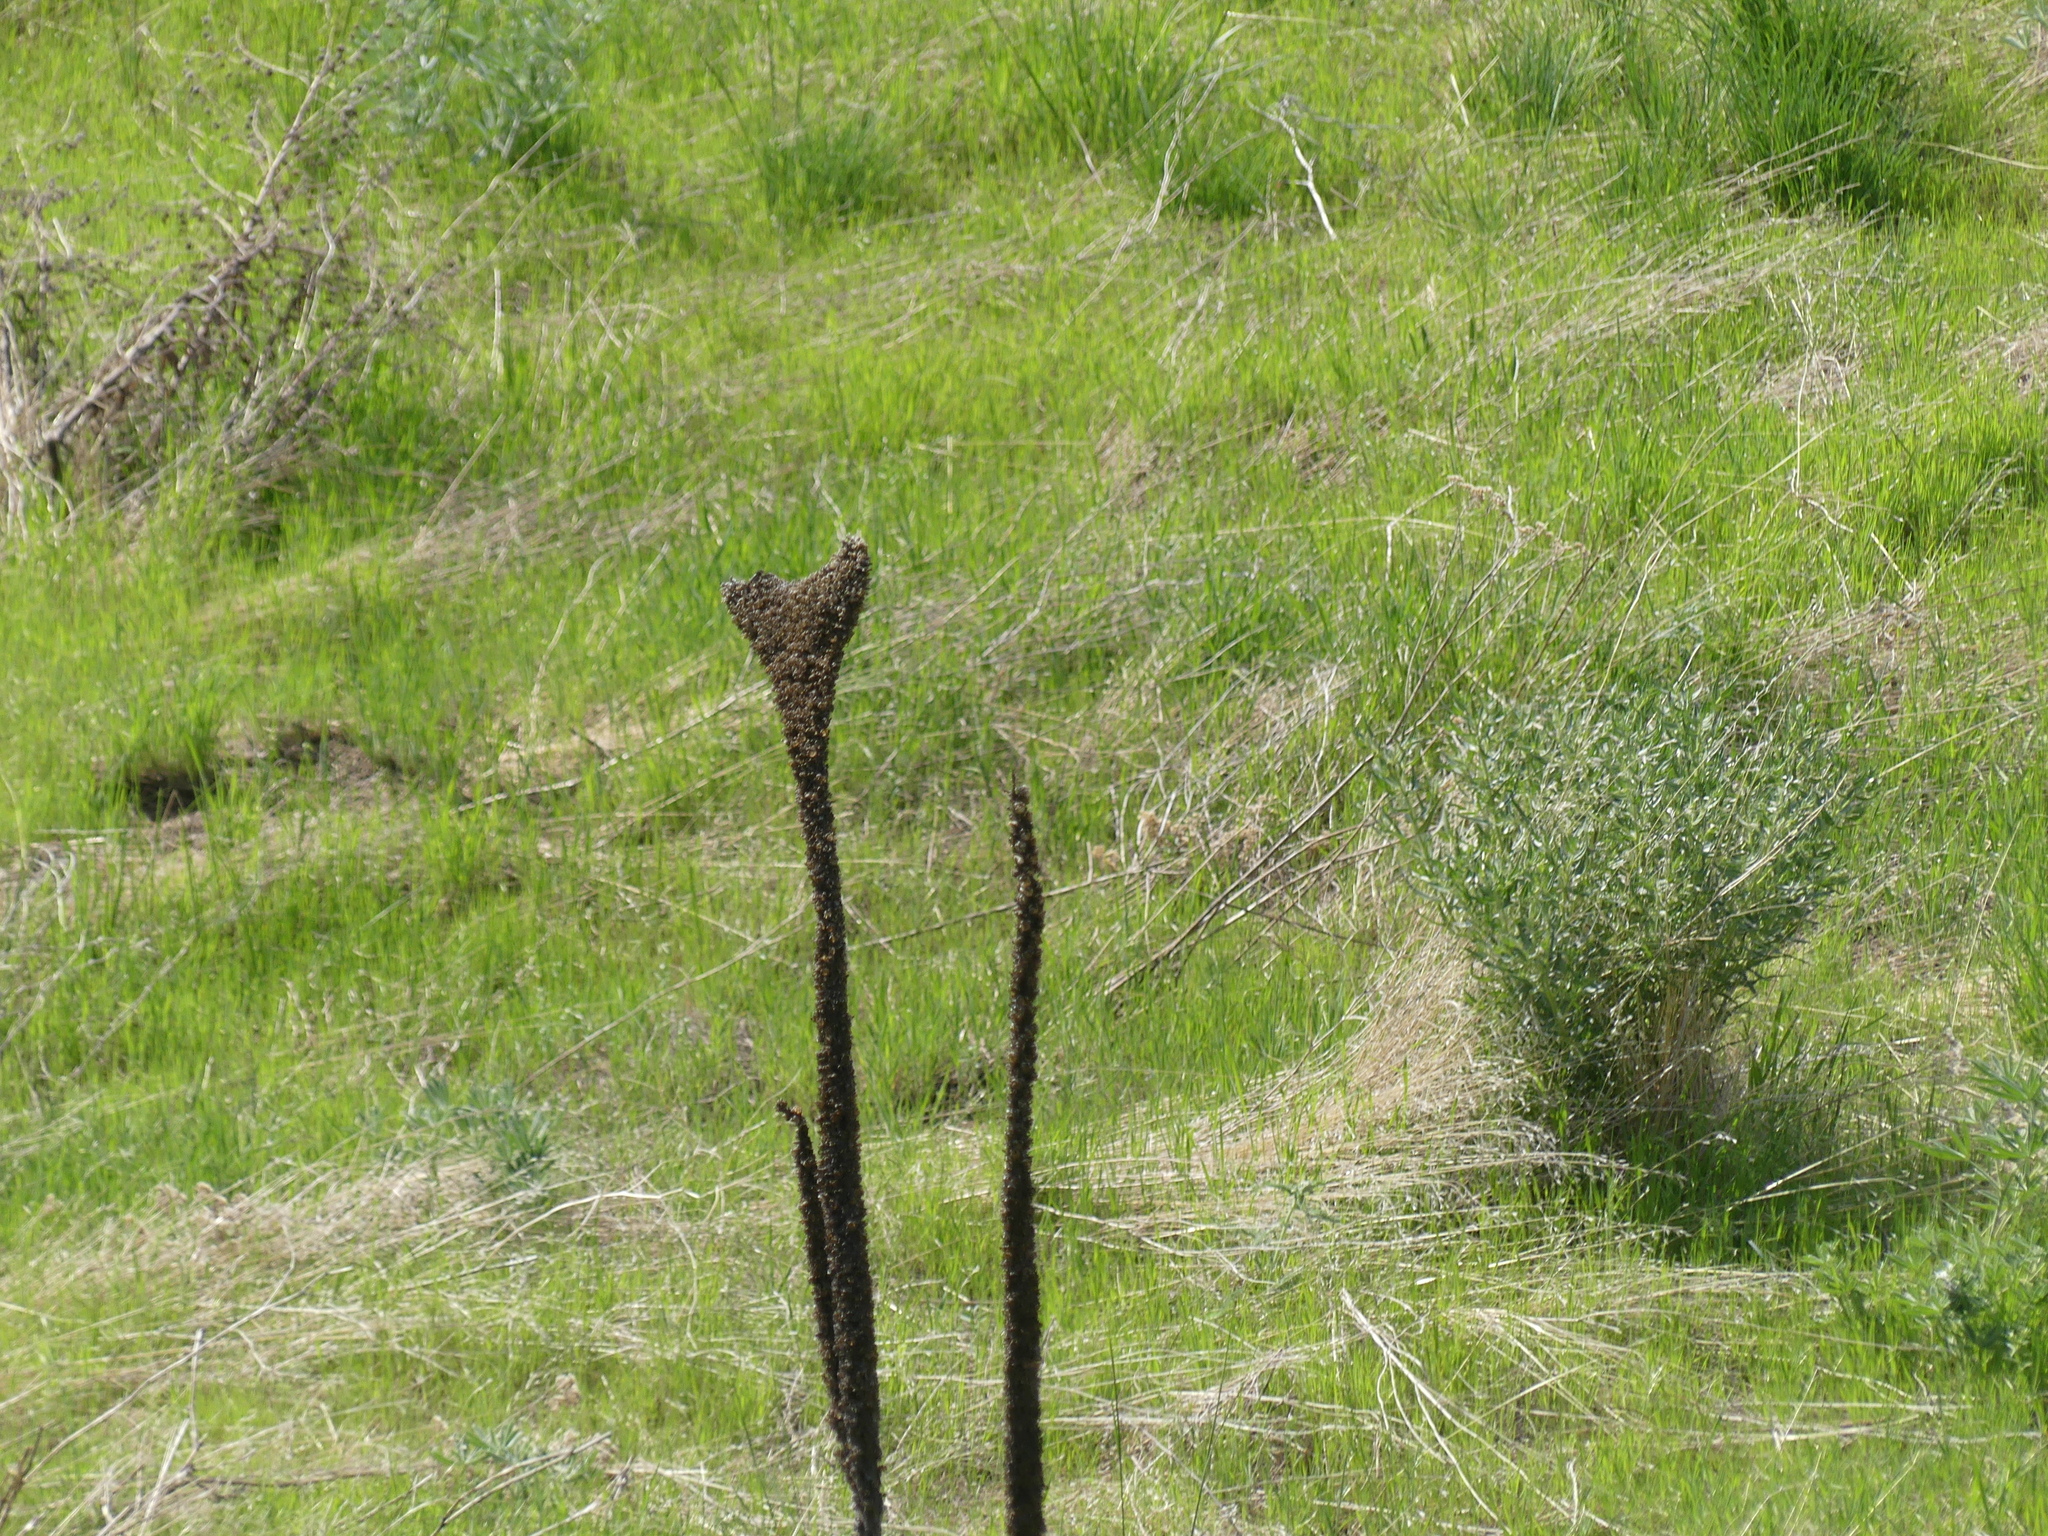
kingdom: Plantae
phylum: Tracheophyta
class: Magnoliopsida
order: Lamiales
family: Scrophulariaceae
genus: Verbascum
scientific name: Verbascum thapsus
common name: Common mullein
